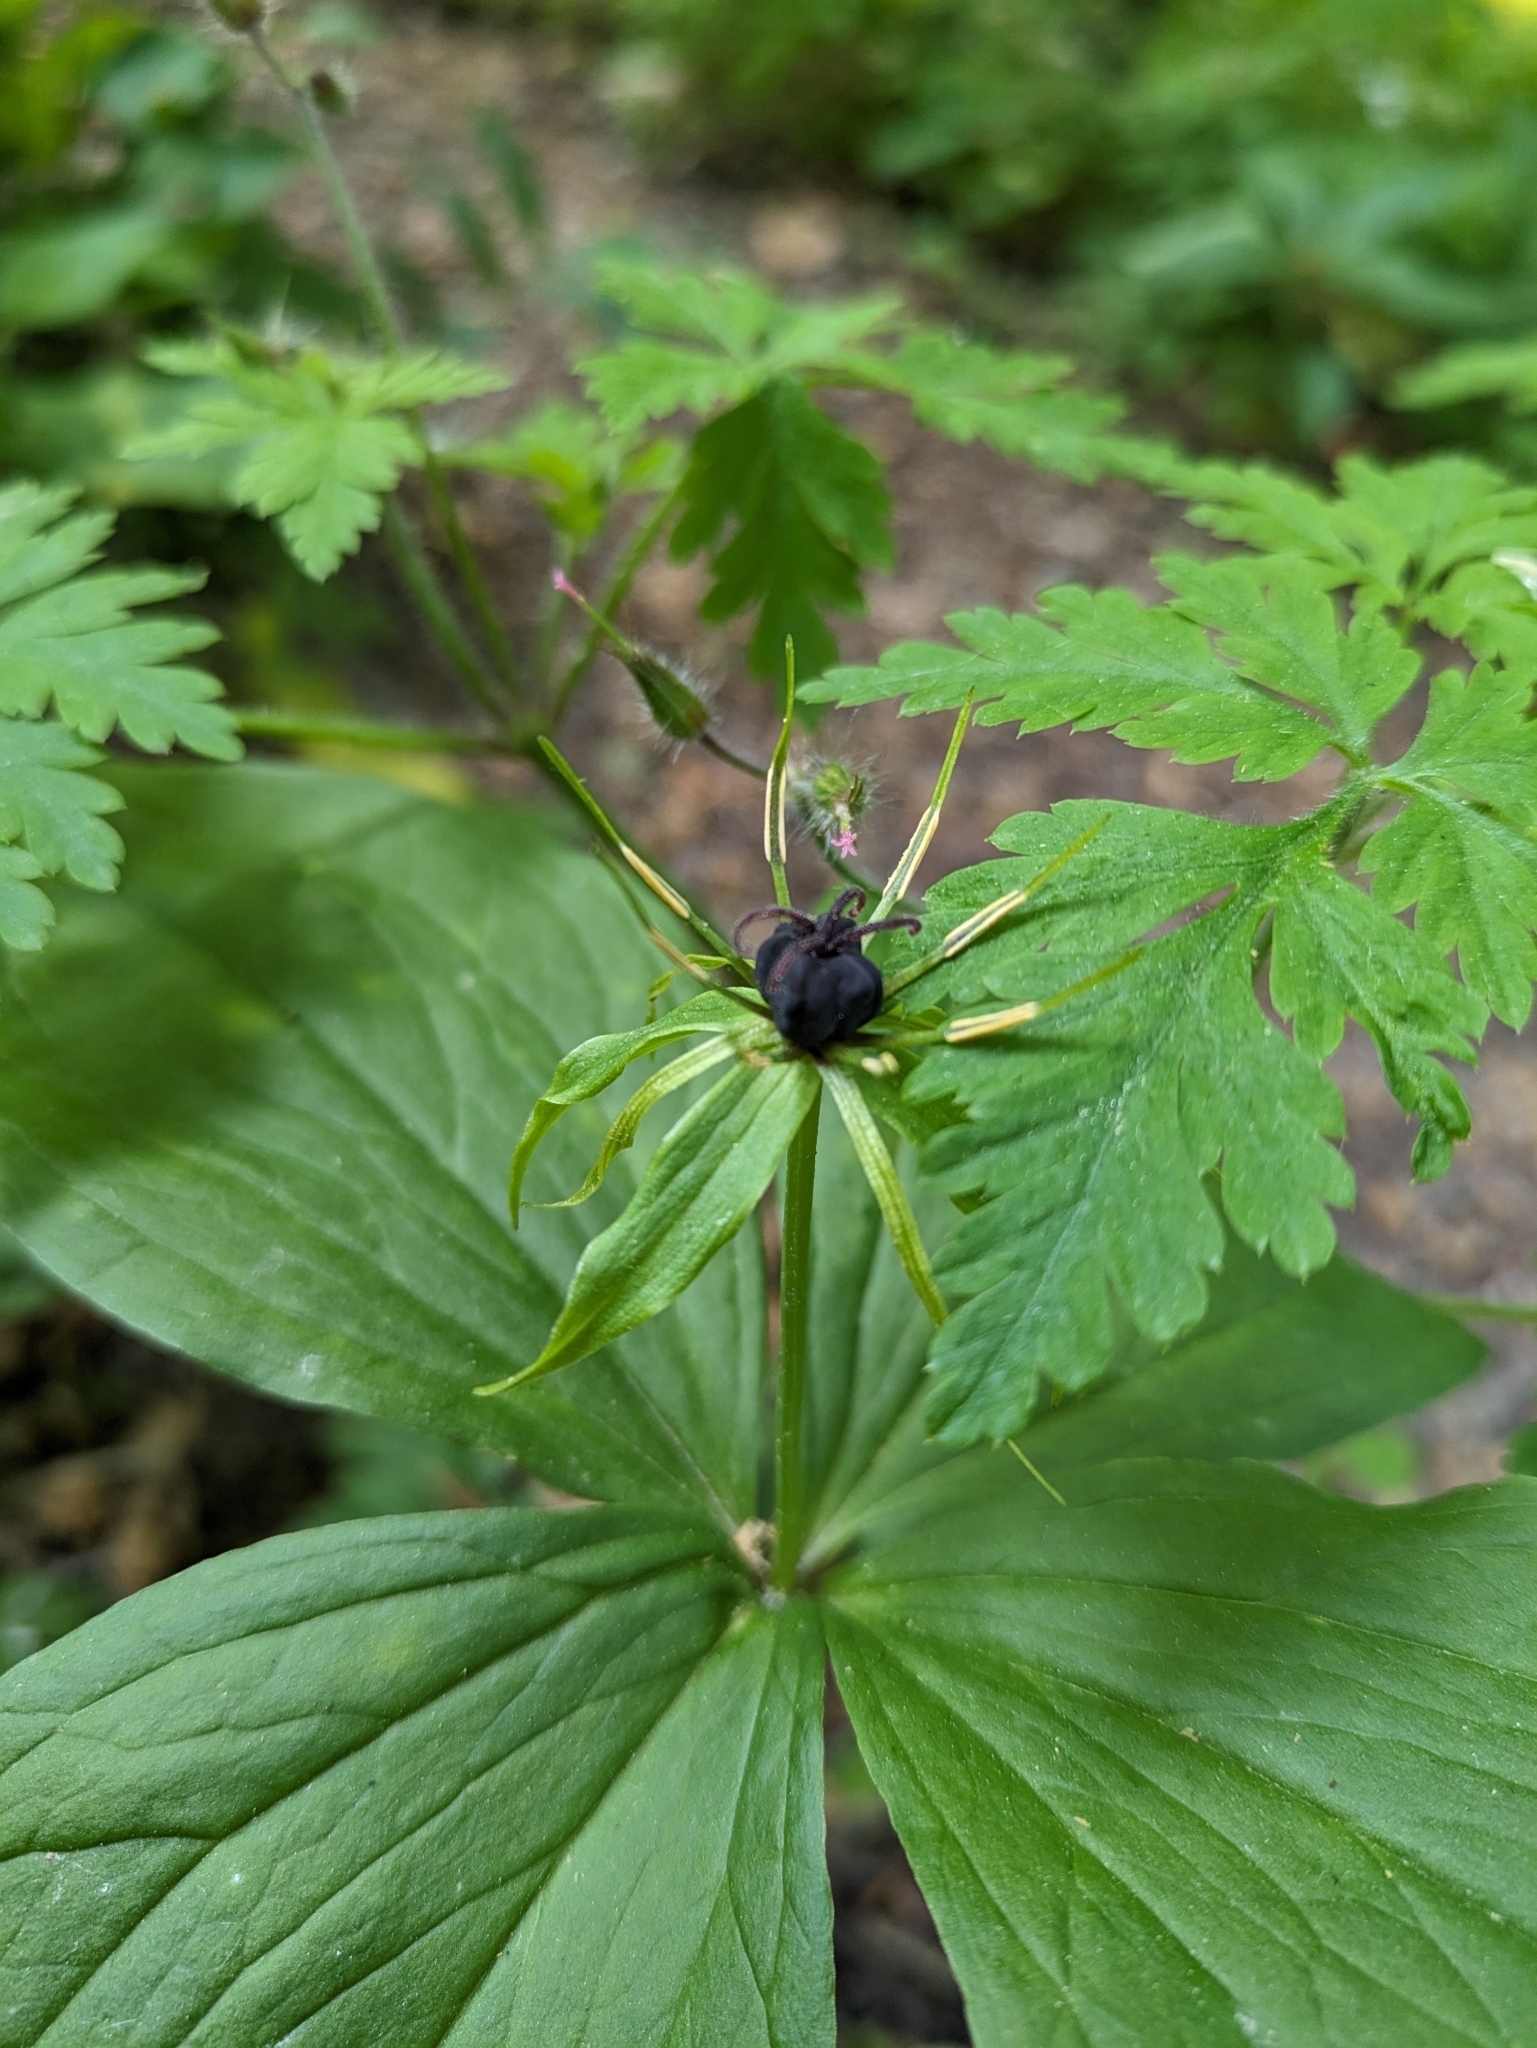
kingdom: Plantae
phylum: Tracheophyta
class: Liliopsida
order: Liliales
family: Melanthiaceae
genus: Paris
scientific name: Paris quadrifolia
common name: Herb-paris
